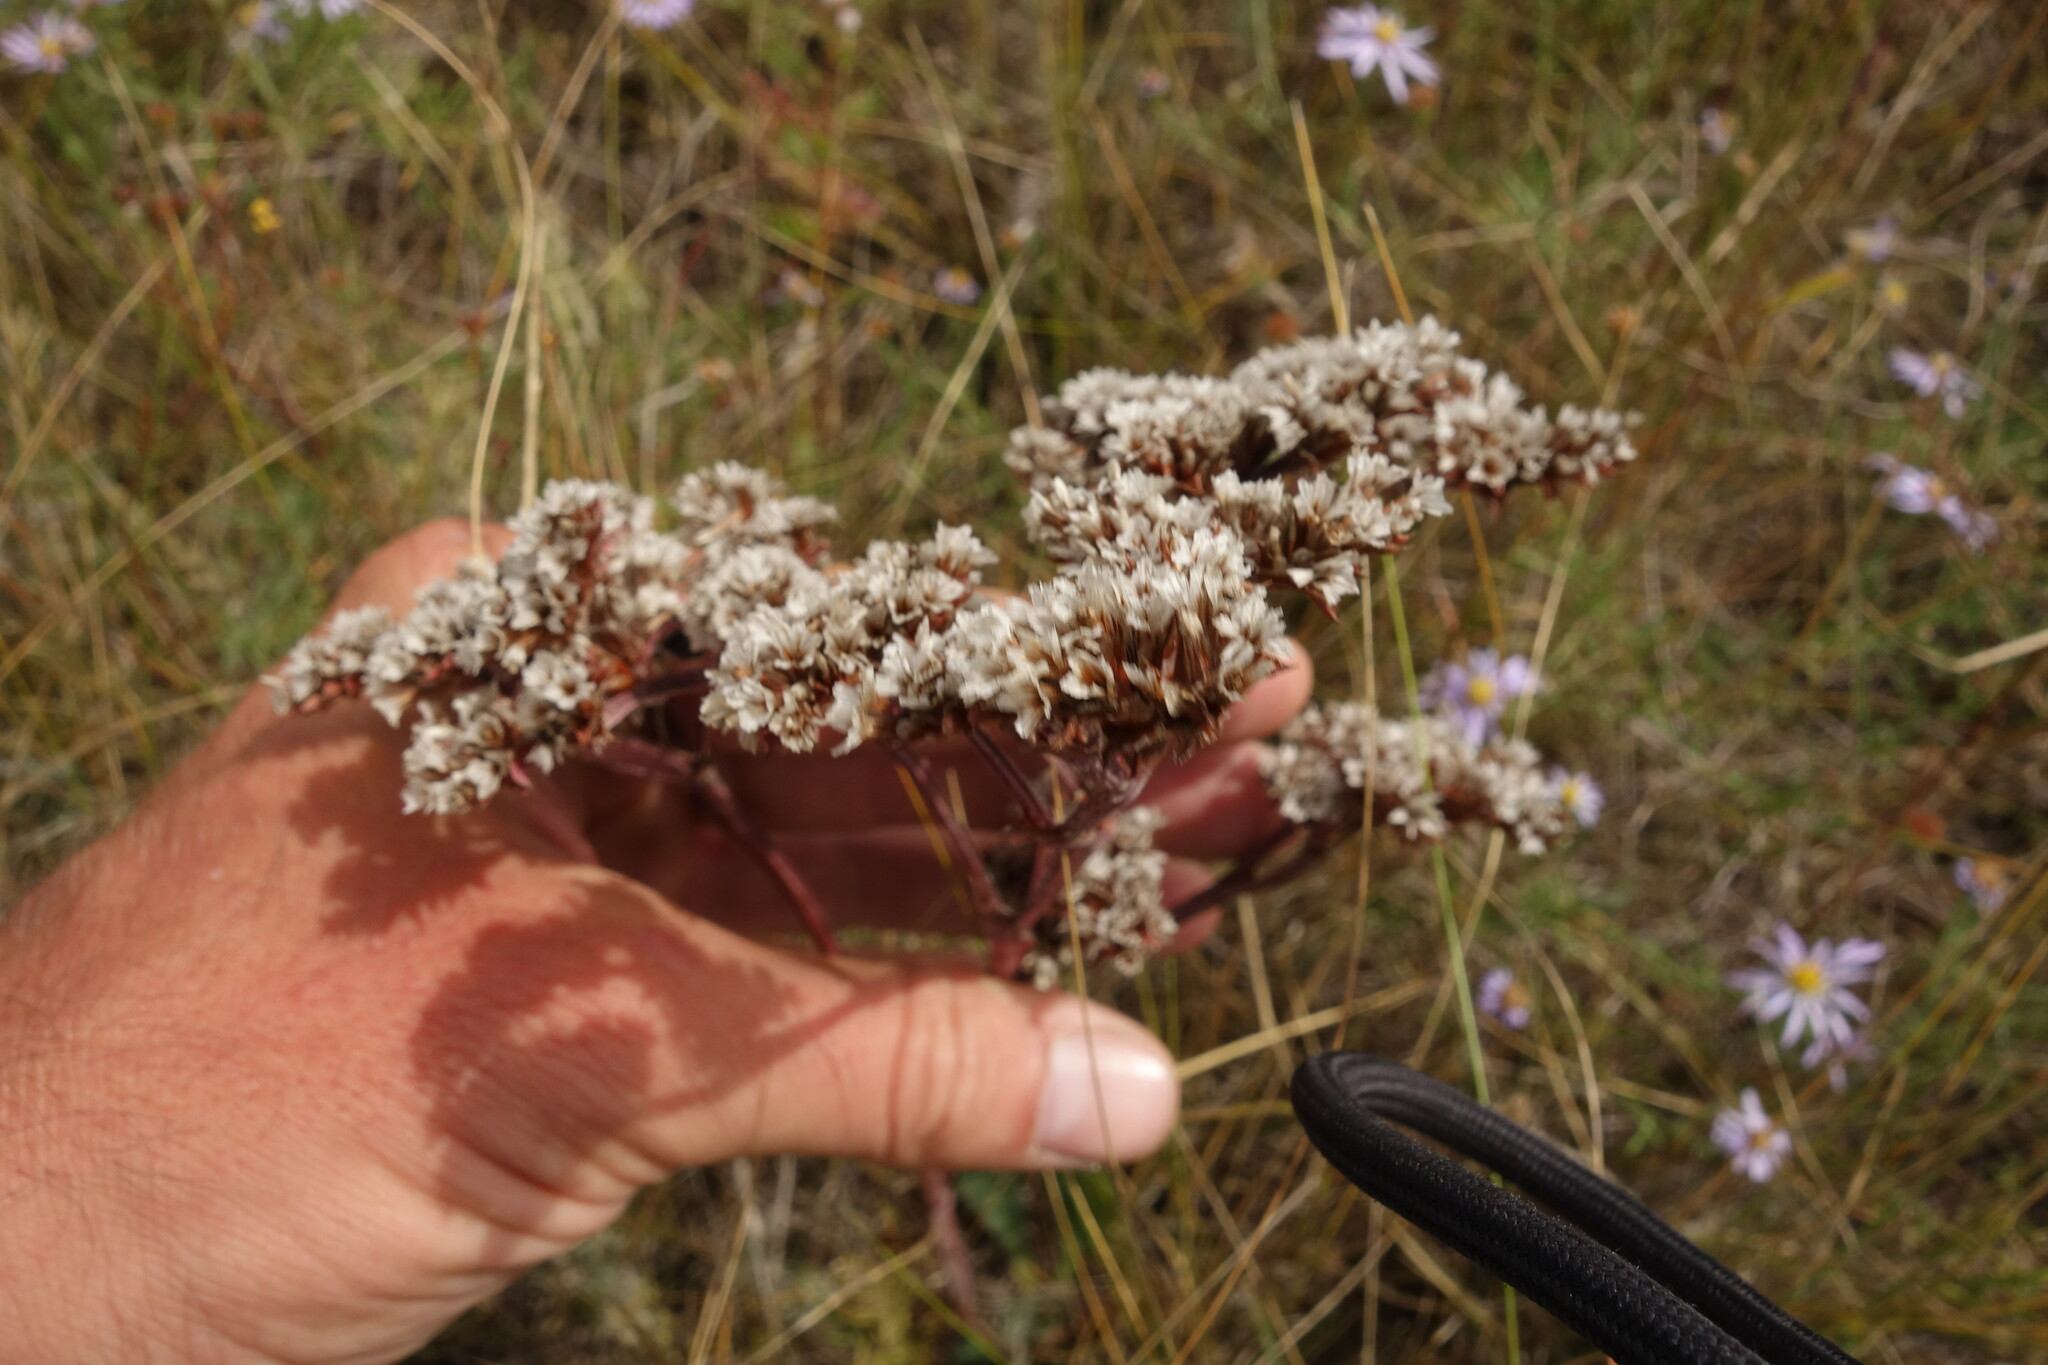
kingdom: Plantae
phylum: Tracheophyta
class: Magnoliopsida
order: Caryophyllales
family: Plumbaginaceae
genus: Goniolimon
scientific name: Goniolimon speciosum
